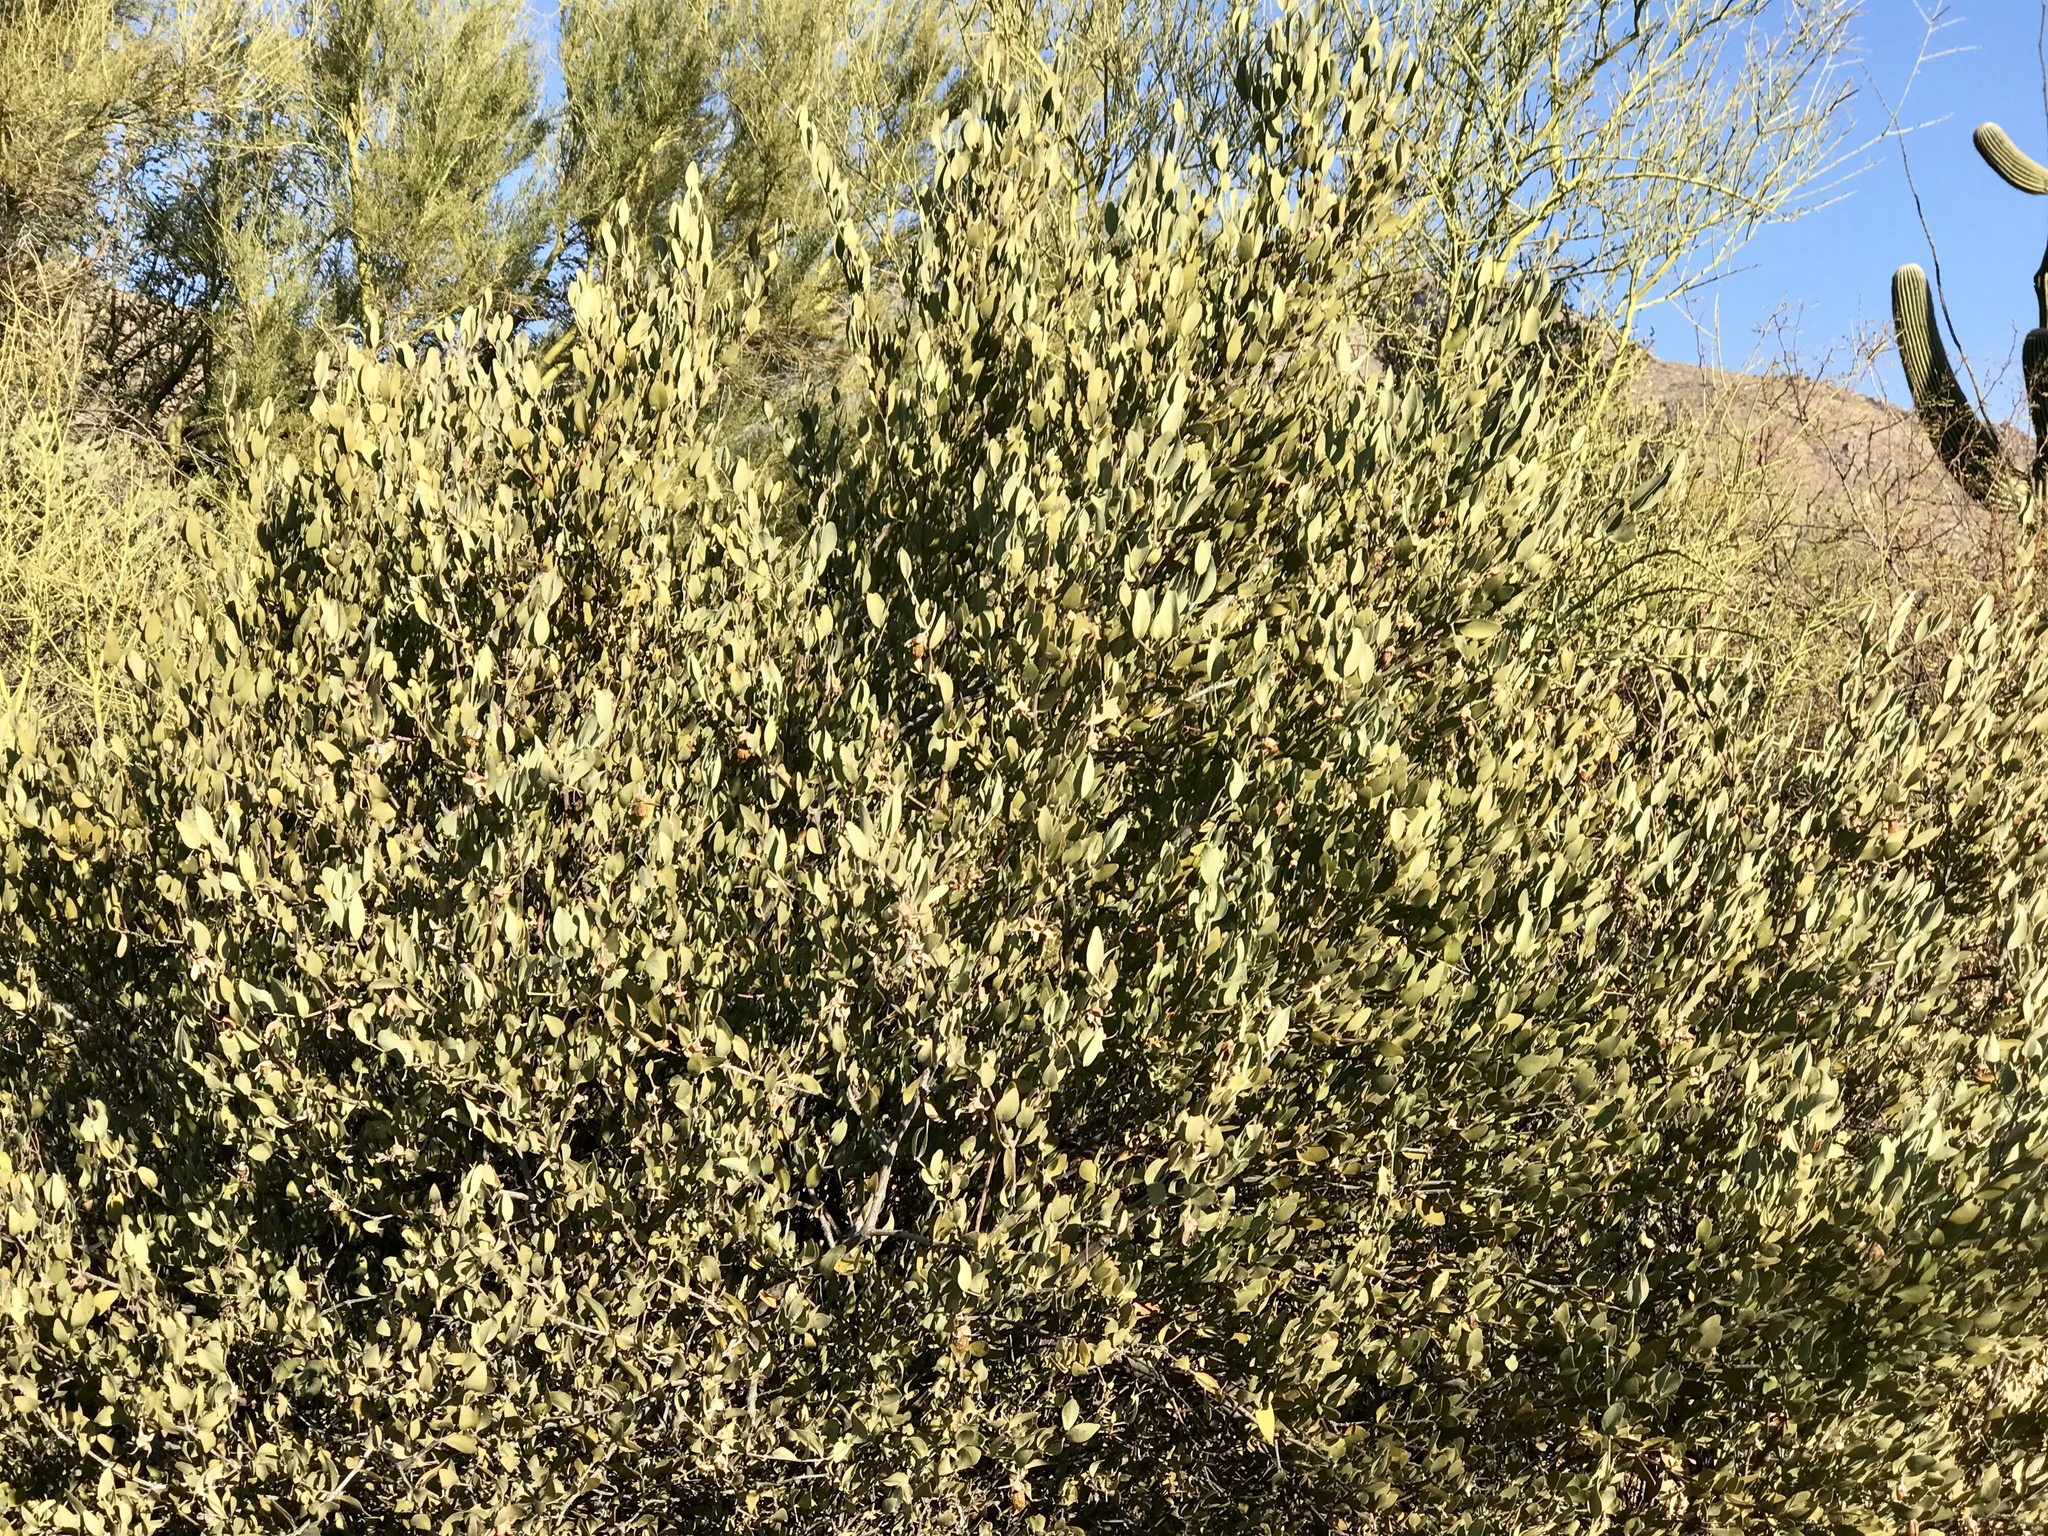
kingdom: Plantae
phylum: Tracheophyta
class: Magnoliopsida
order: Caryophyllales
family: Simmondsiaceae
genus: Simmondsia
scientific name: Simmondsia chinensis
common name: Jojoba
